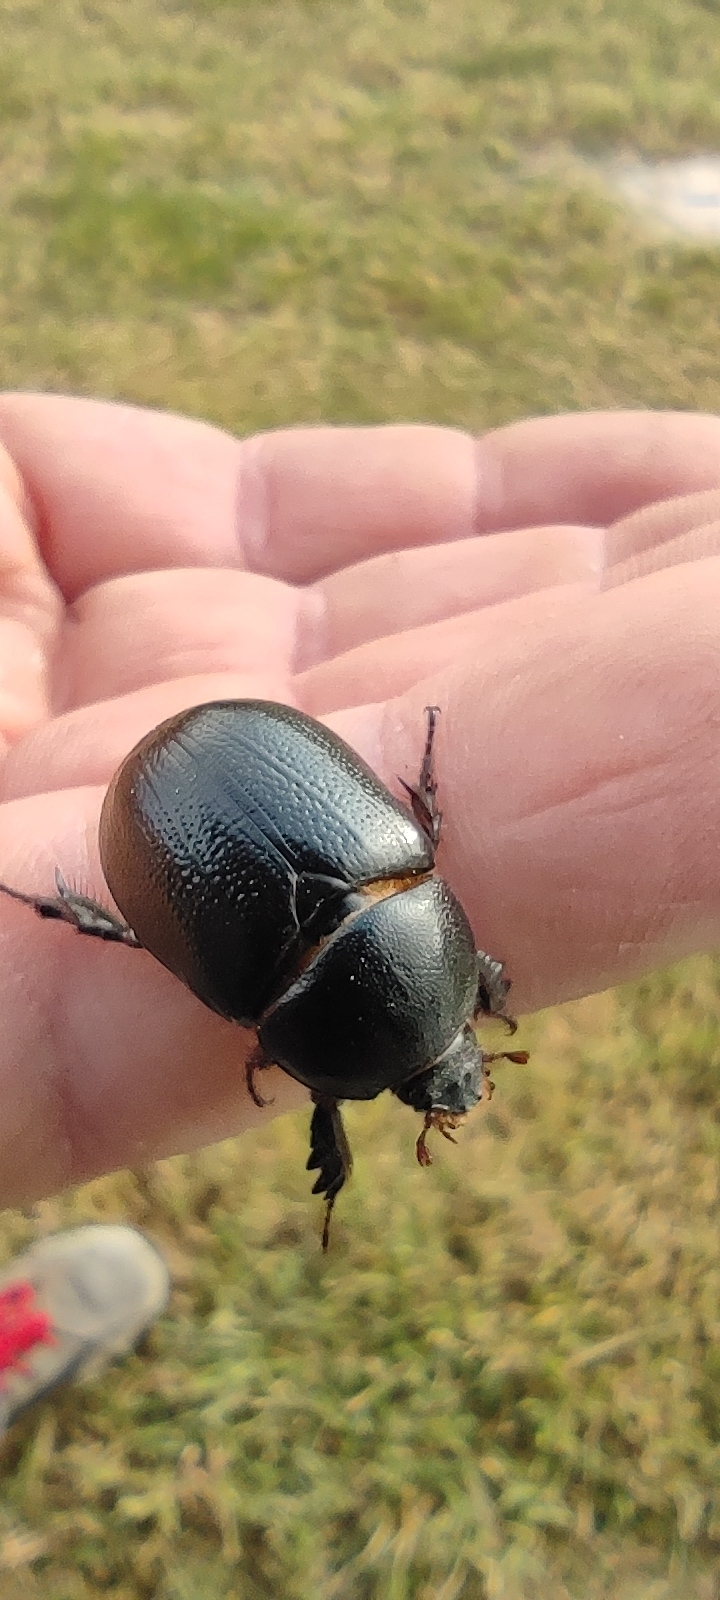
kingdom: Animalia
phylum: Arthropoda
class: Insecta
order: Coleoptera
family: Scarabaeidae
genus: Pentodon
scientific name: Pentodon bidens
